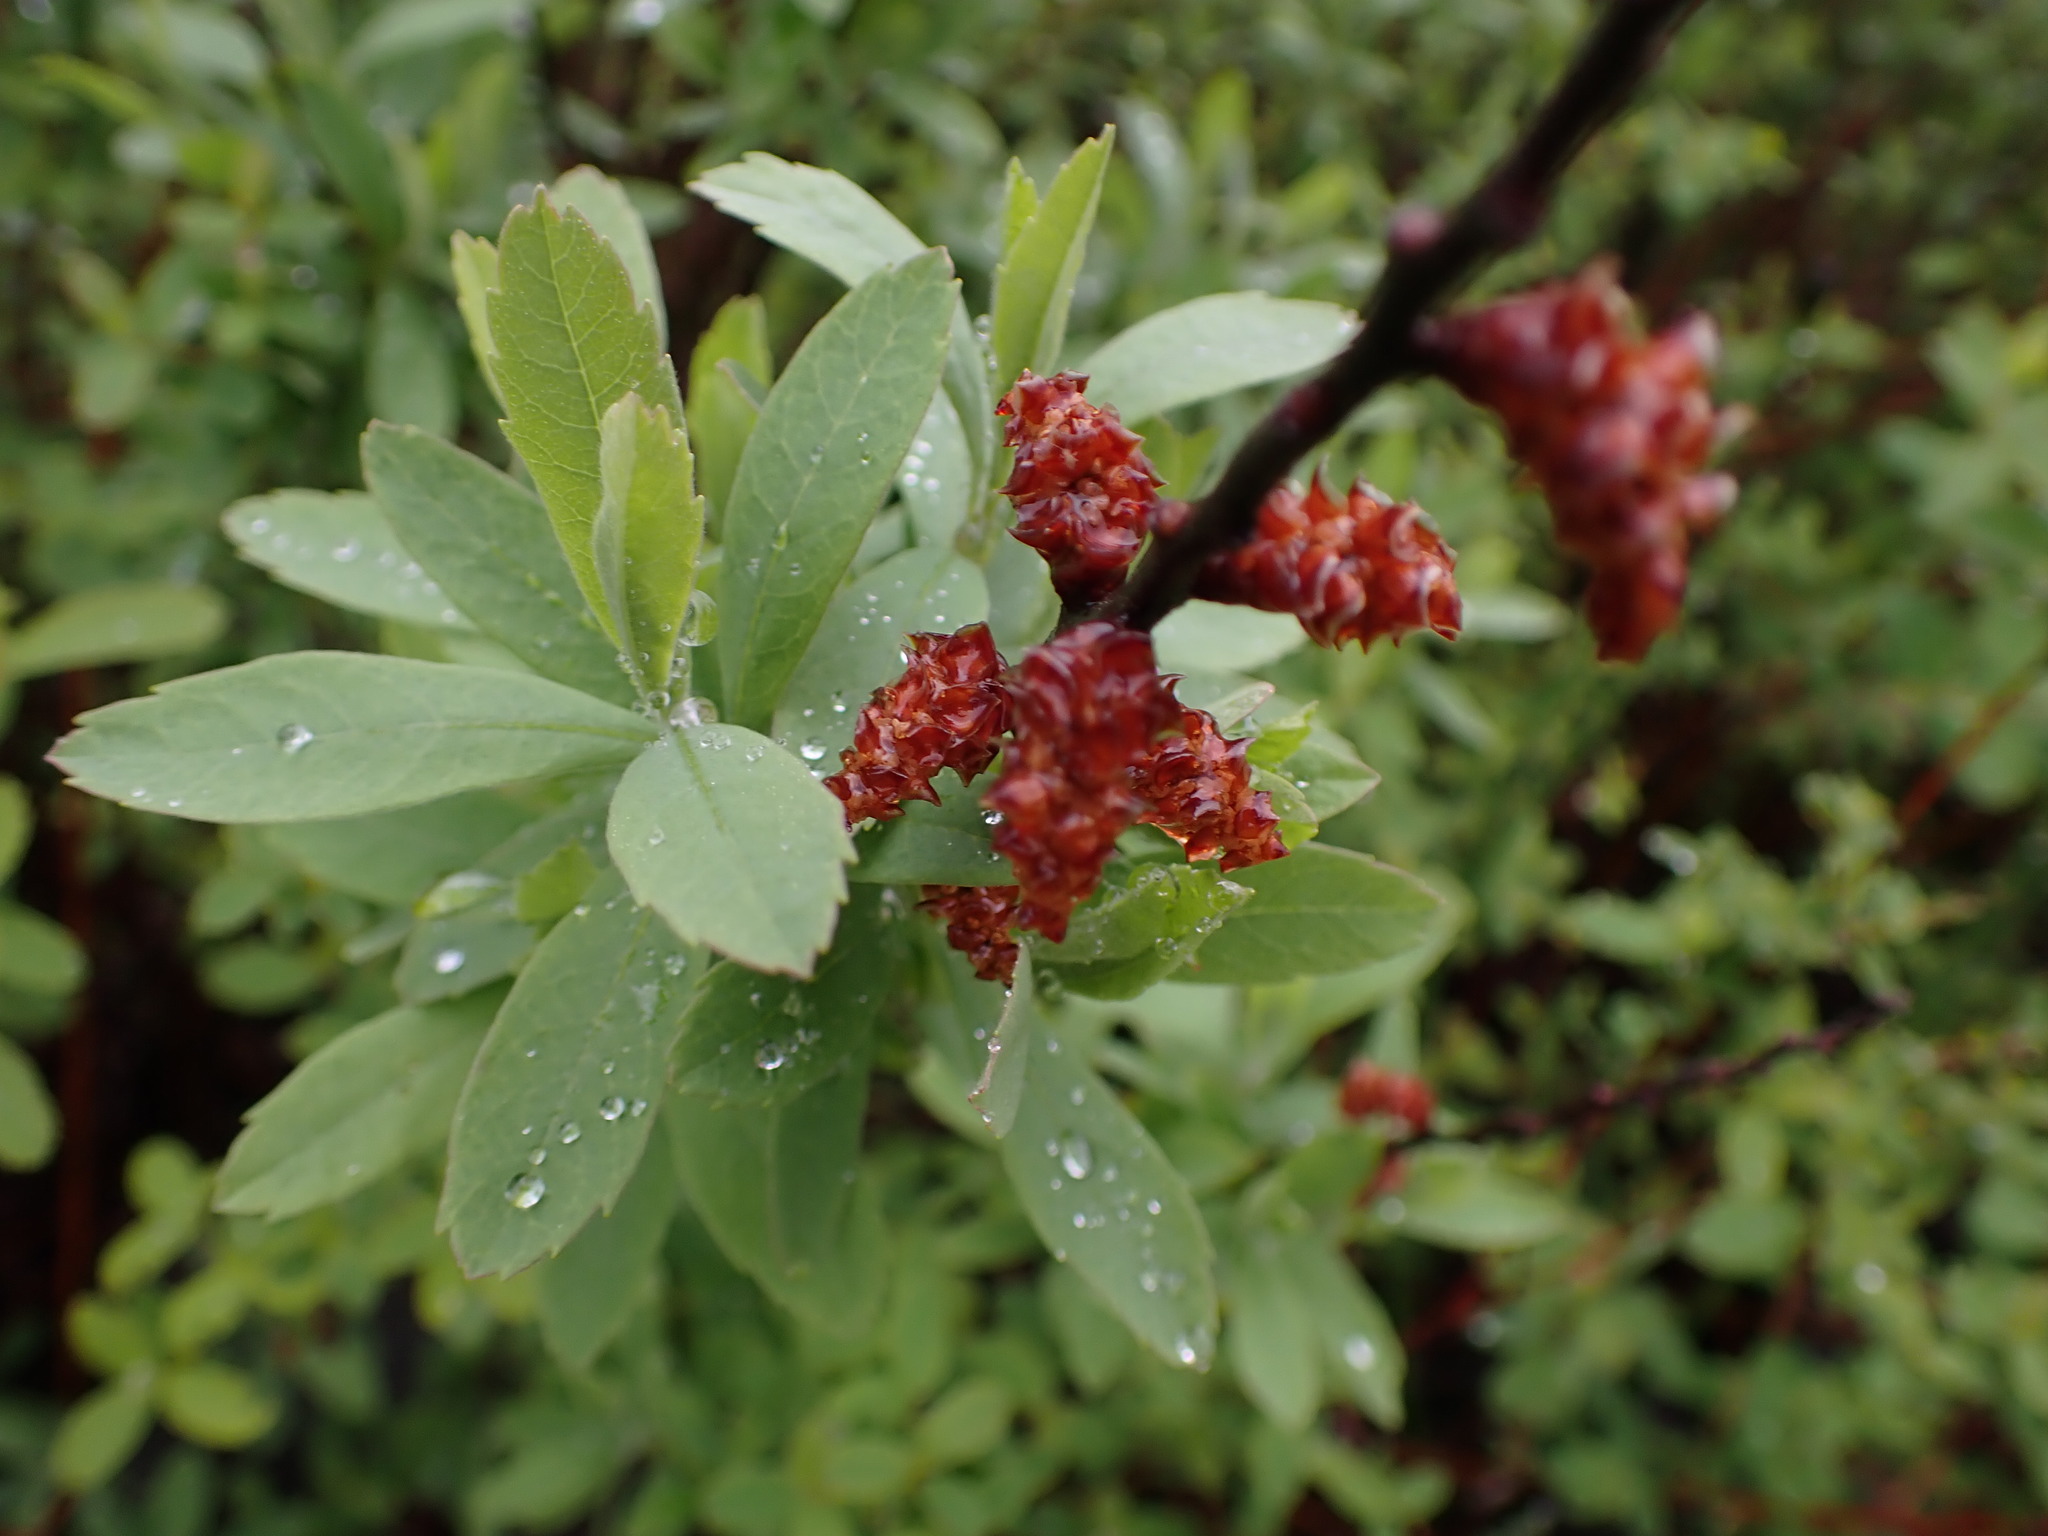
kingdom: Plantae
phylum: Tracheophyta
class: Magnoliopsida
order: Fagales
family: Myricaceae
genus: Myrica
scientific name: Myrica gale
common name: Sweet gale
